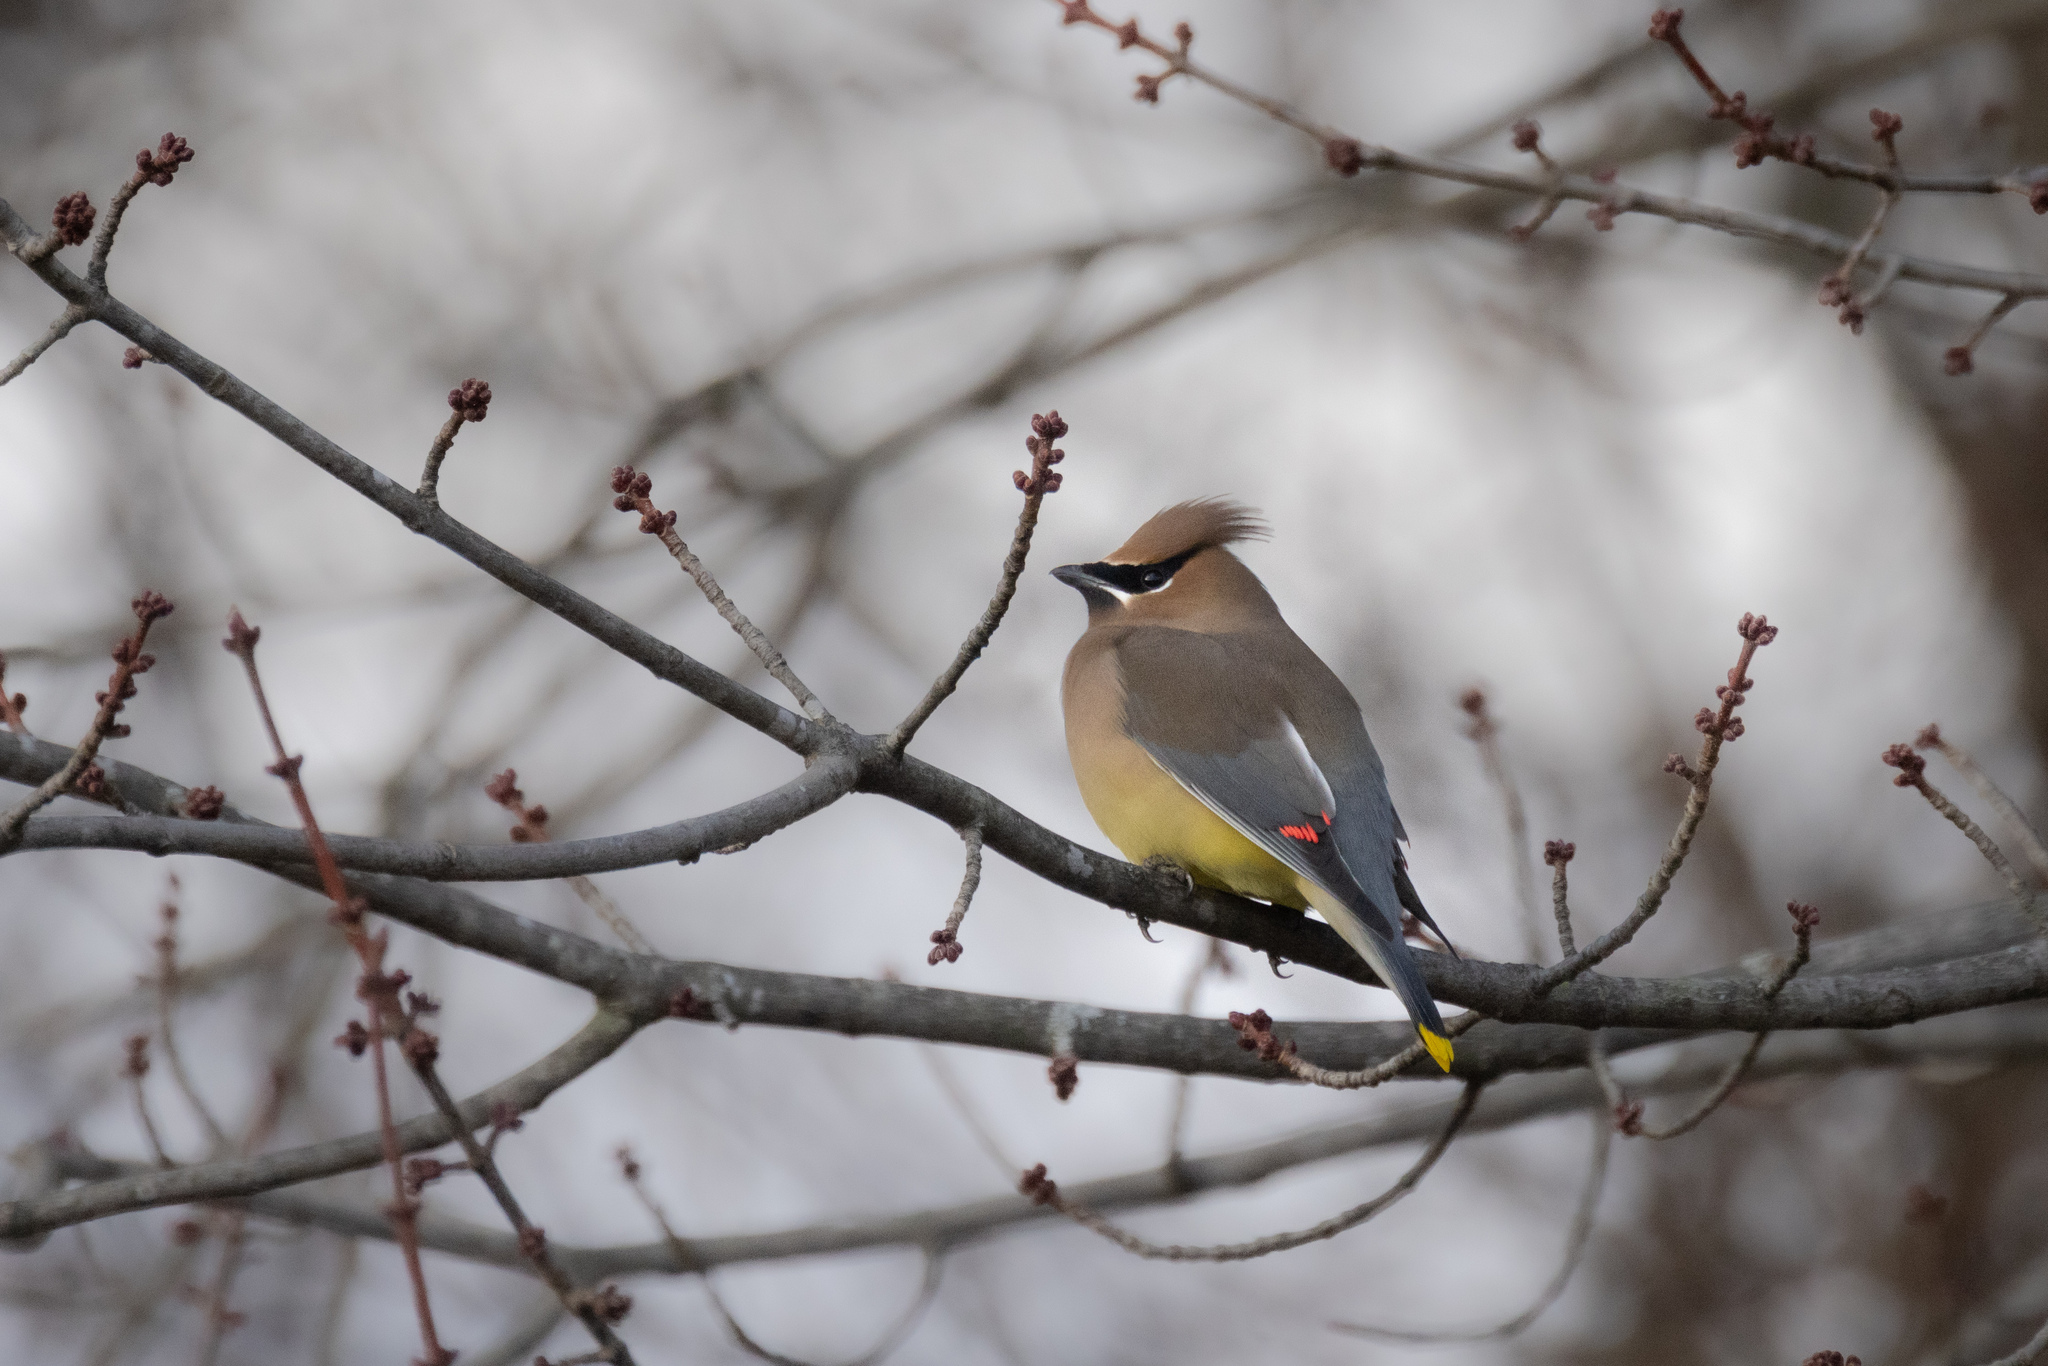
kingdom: Animalia
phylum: Chordata
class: Aves
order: Passeriformes
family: Bombycillidae
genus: Bombycilla
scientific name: Bombycilla cedrorum
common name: Cedar waxwing
